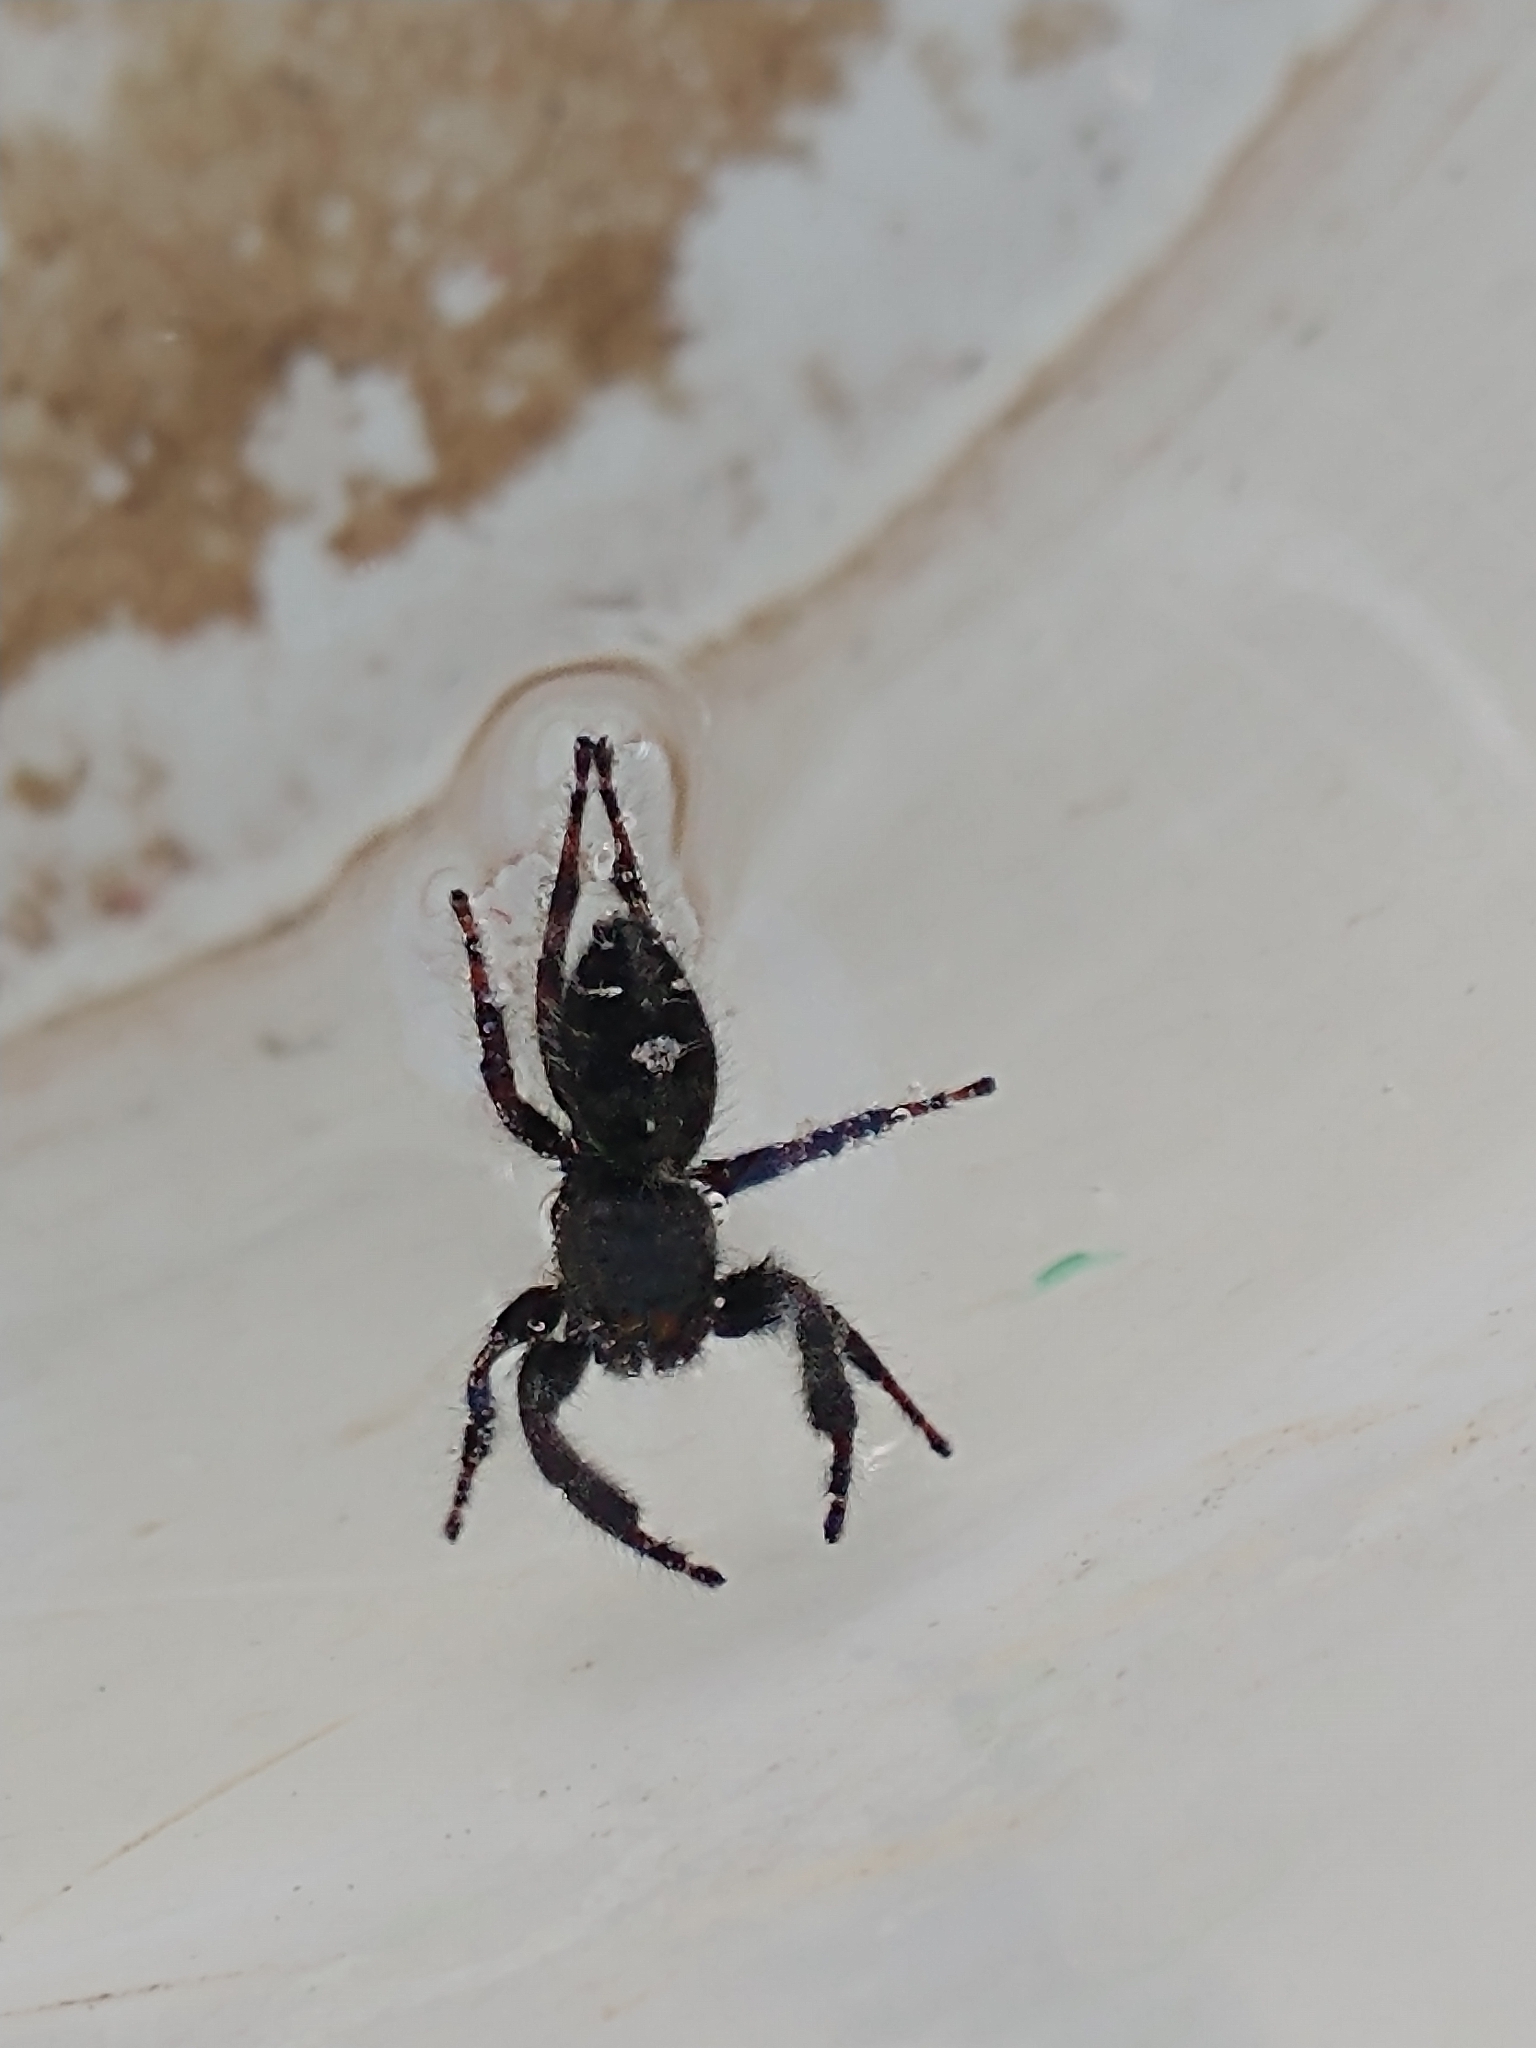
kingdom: Animalia
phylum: Arthropoda
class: Arachnida
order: Araneae
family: Salticidae
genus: Phidippus
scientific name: Phidippus audax
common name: Bold jumper
